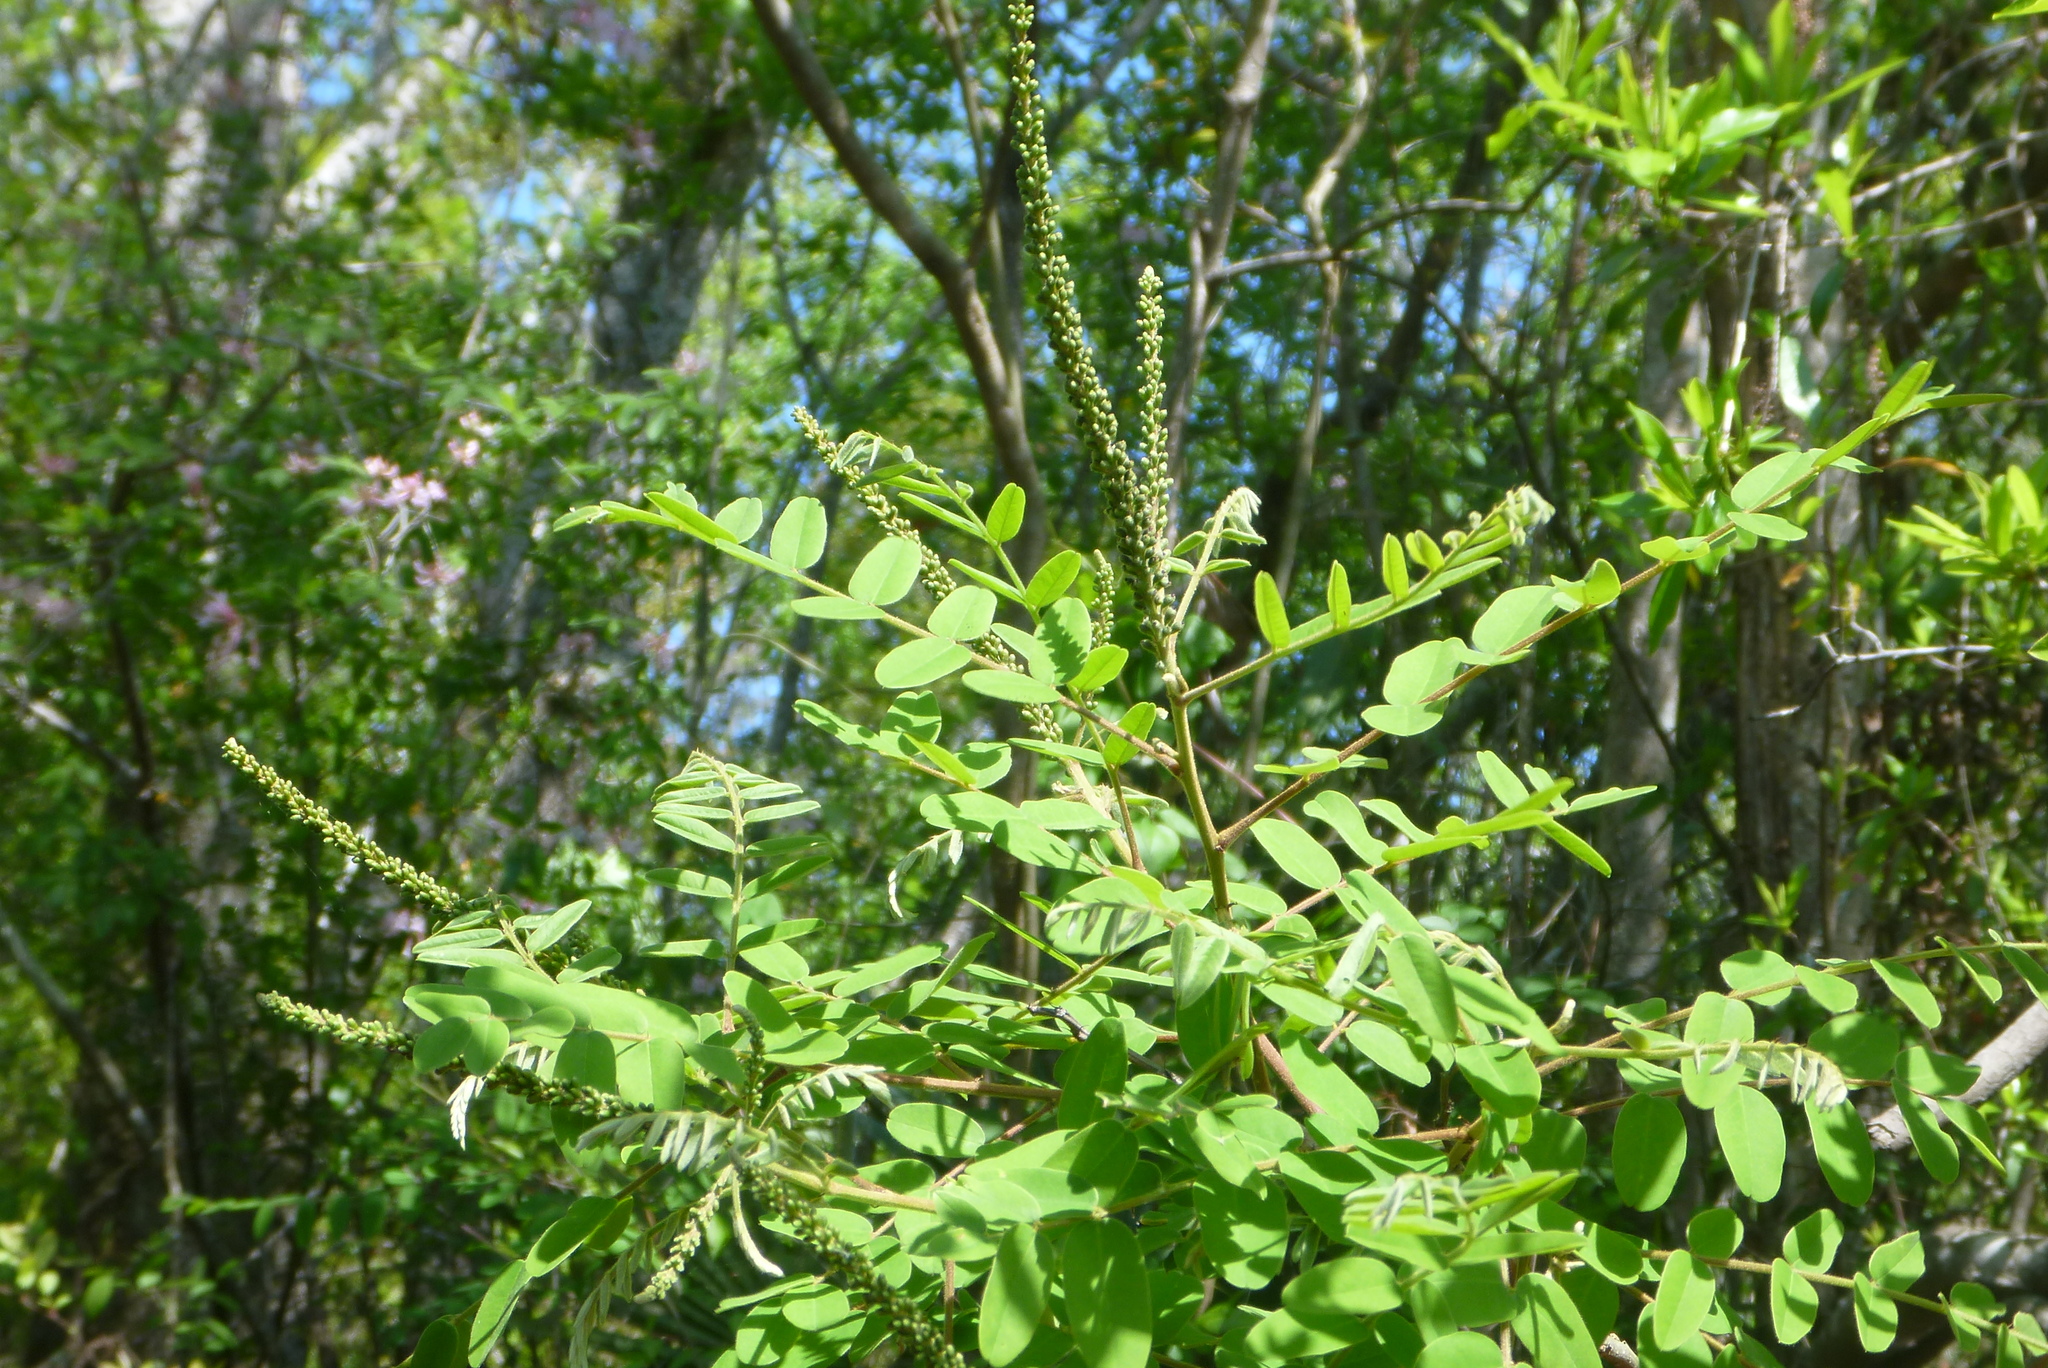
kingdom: Plantae
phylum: Tracheophyta
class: Magnoliopsida
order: Fabales
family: Fabaceae
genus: Amorpha
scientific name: Amorpha fruticosa
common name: False indigo
